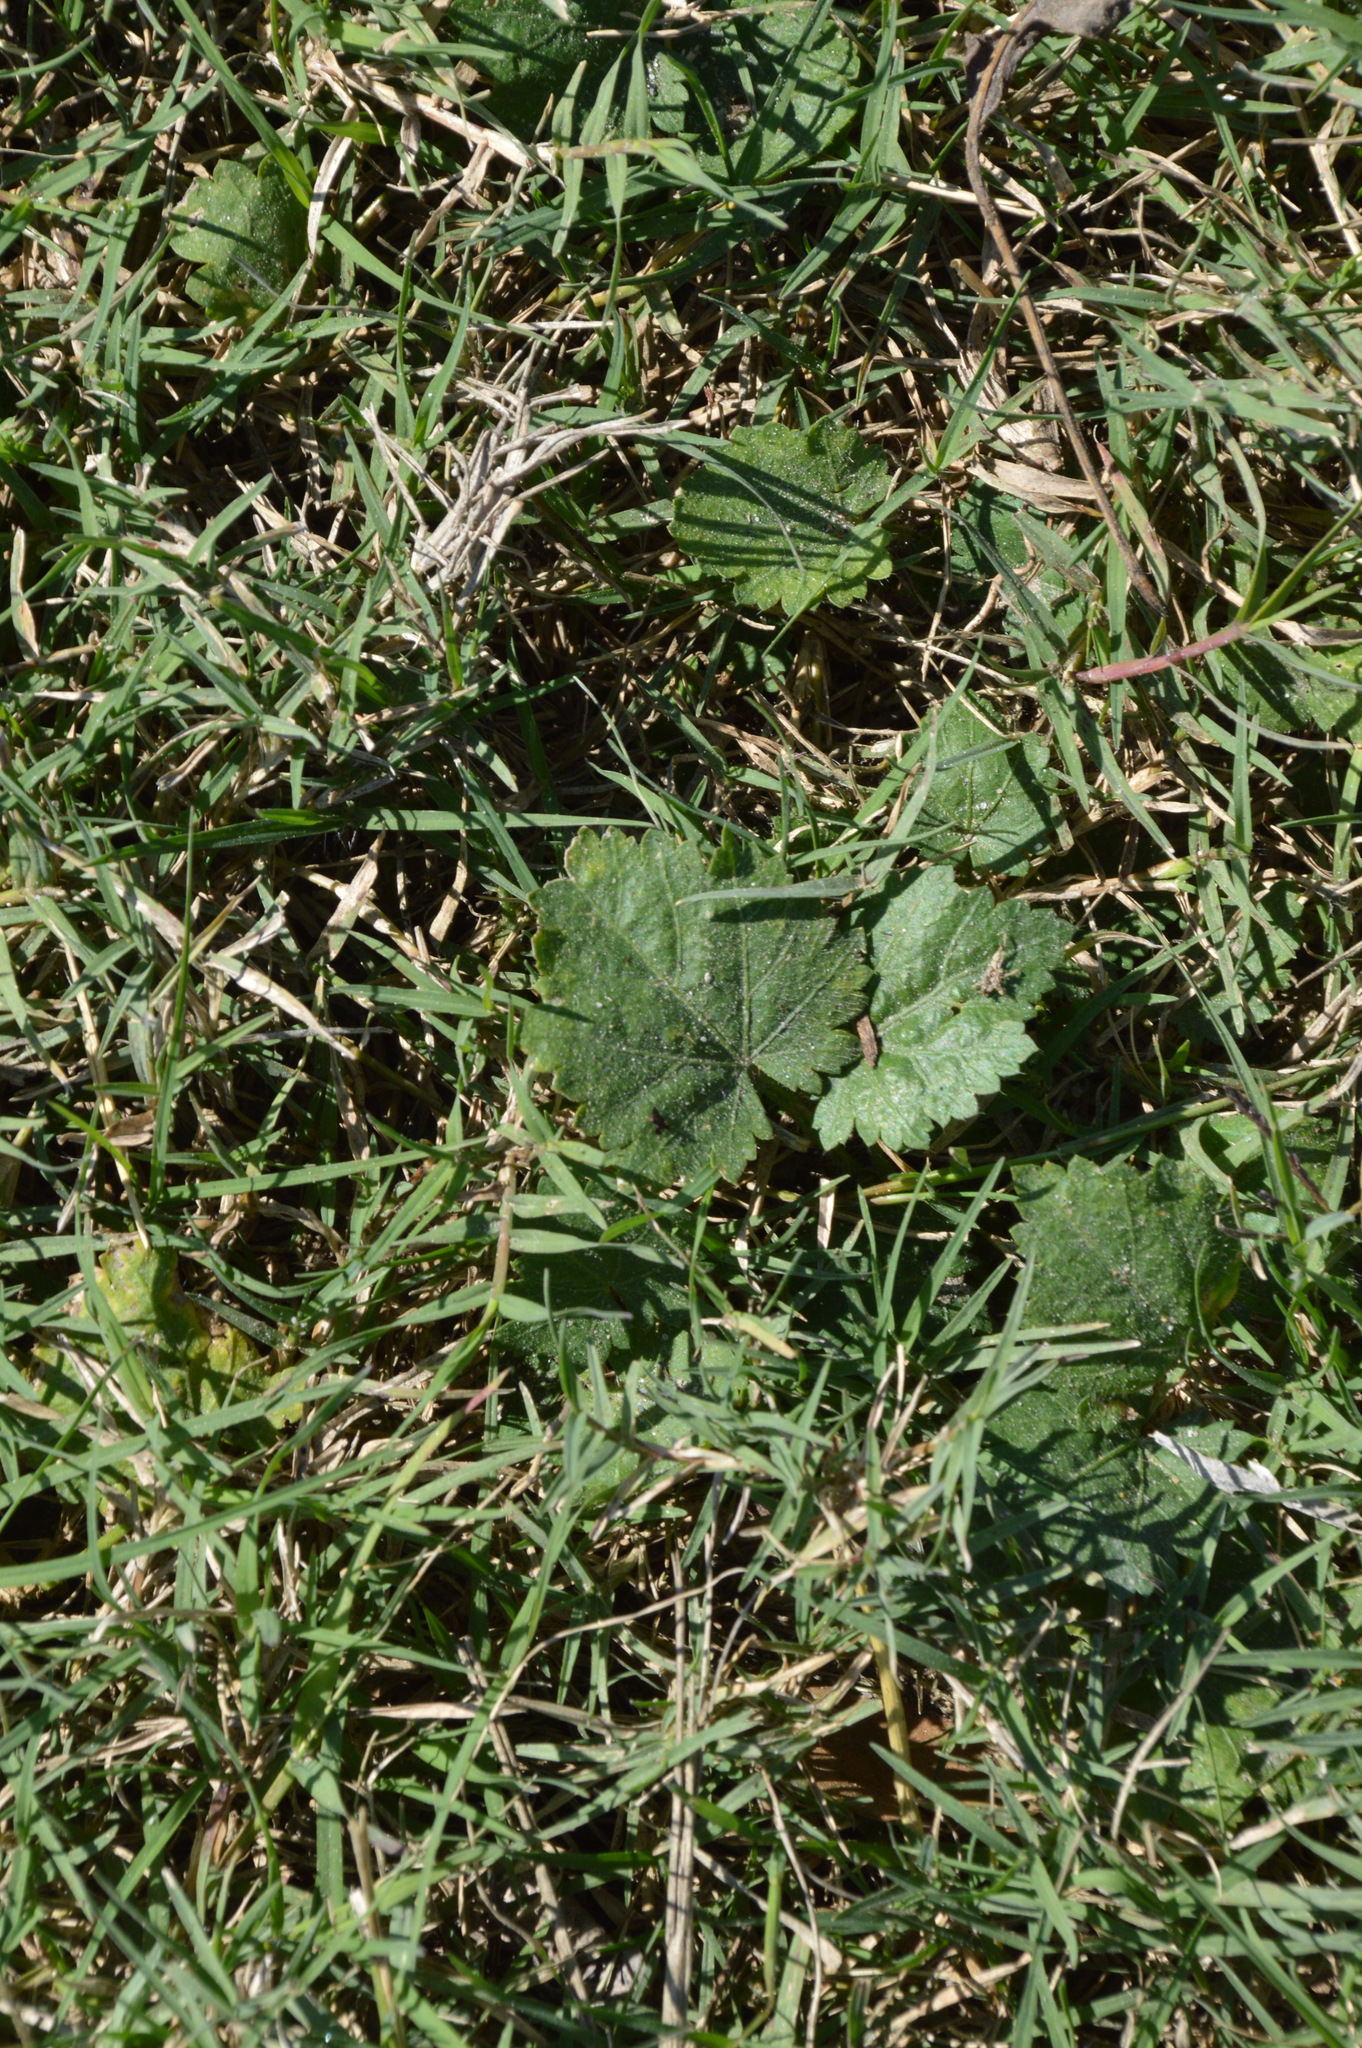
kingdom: Plantae
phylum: Tracheophyta
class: Magnoliopsida
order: Malvales
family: Malvaceae
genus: Modiola
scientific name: Modiola caroliniana
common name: Carolina bristlemallow
